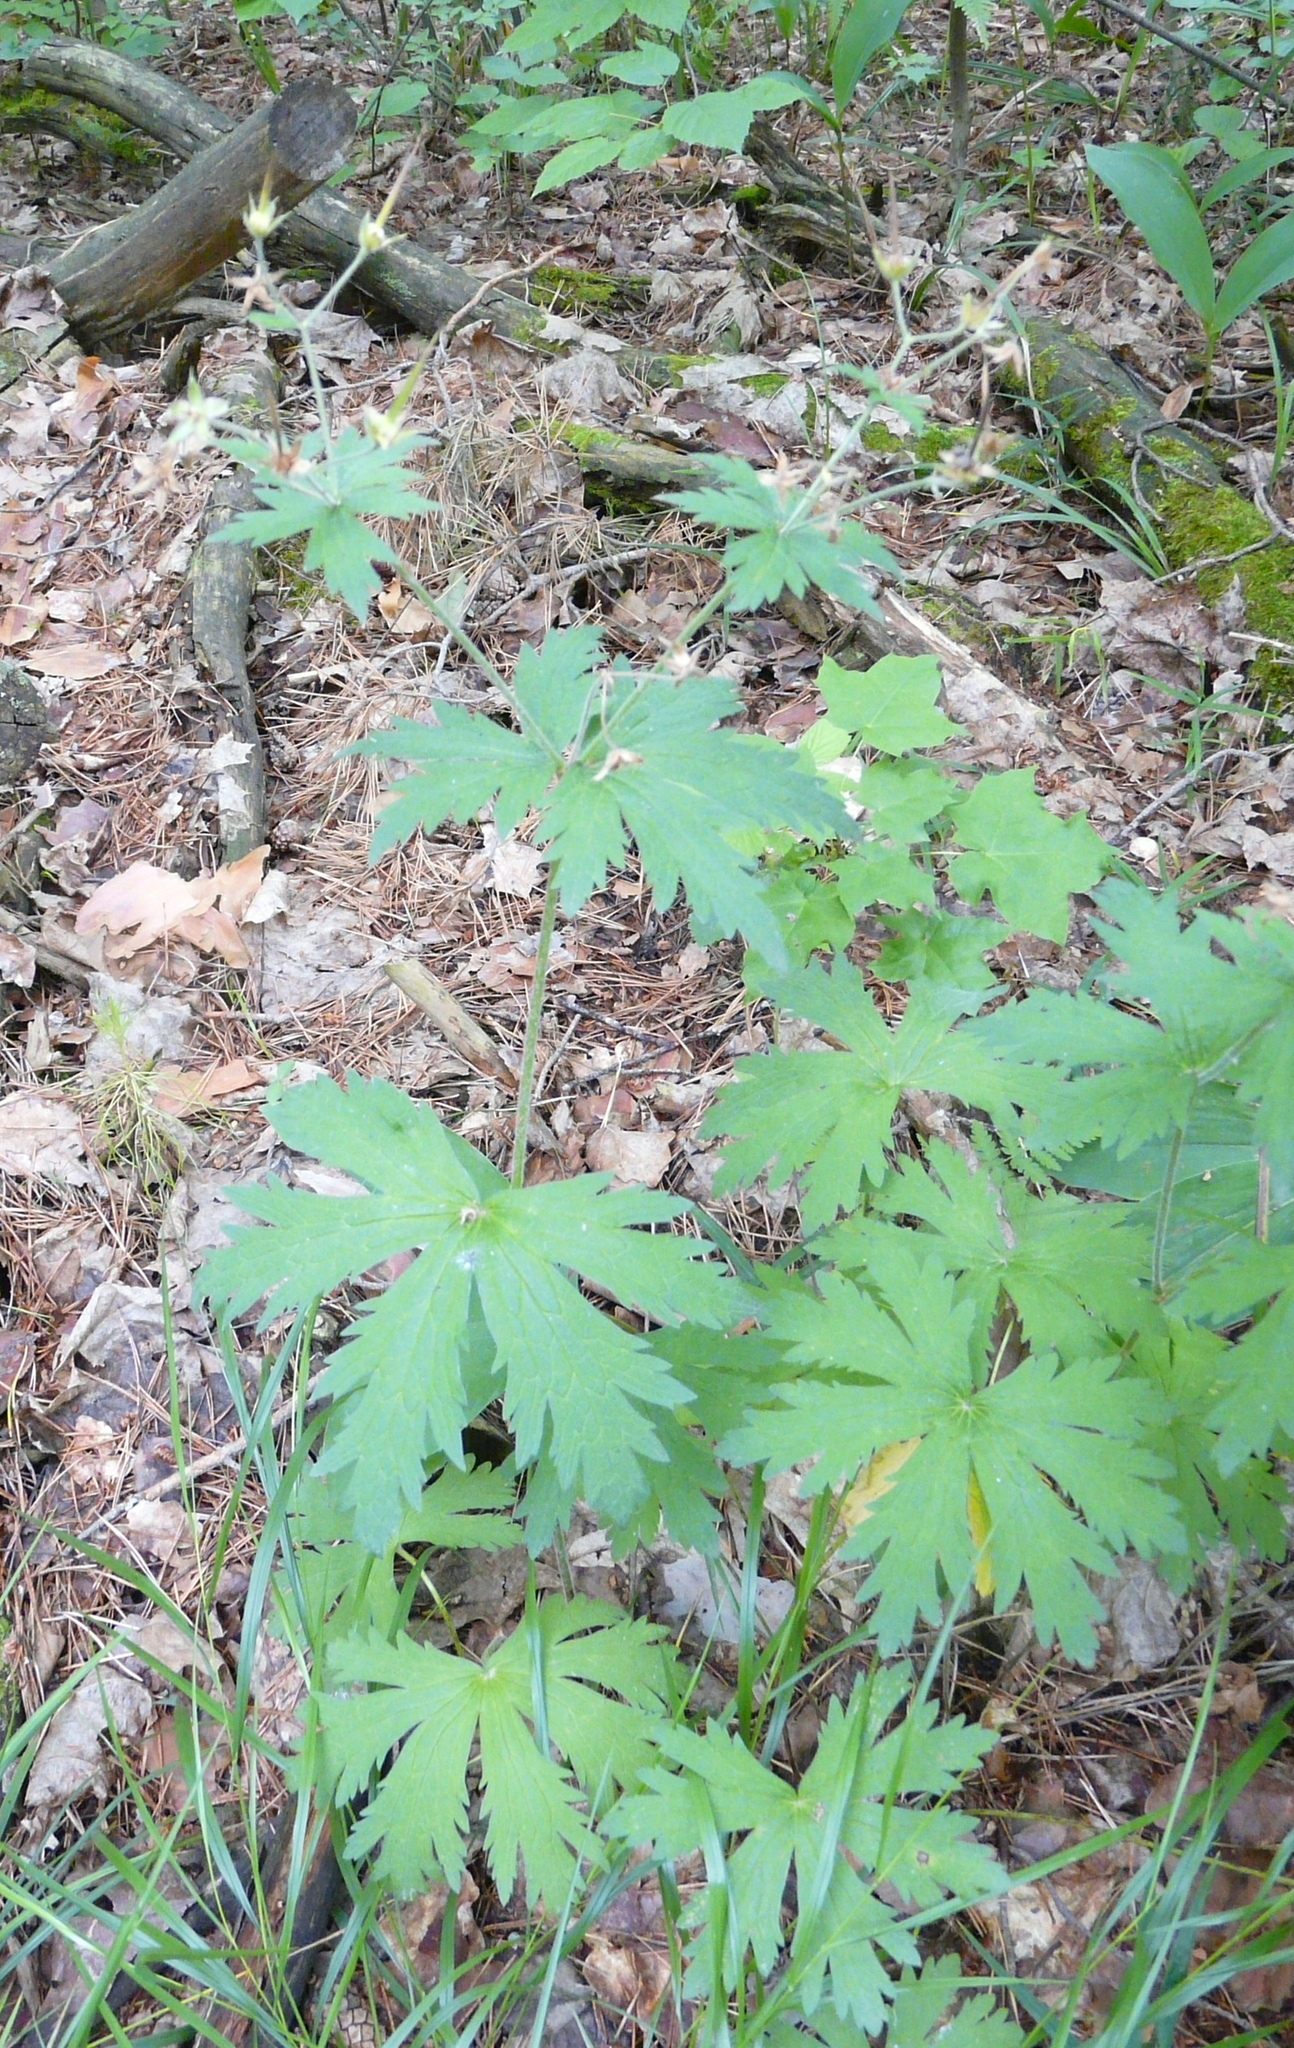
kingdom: Plantae
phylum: Tracheophyta
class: Magnoliopsida
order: Geraniales
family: Geraniaceae
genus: Geranium
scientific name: Geranium sylvaticum
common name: Wood crane's-bill
